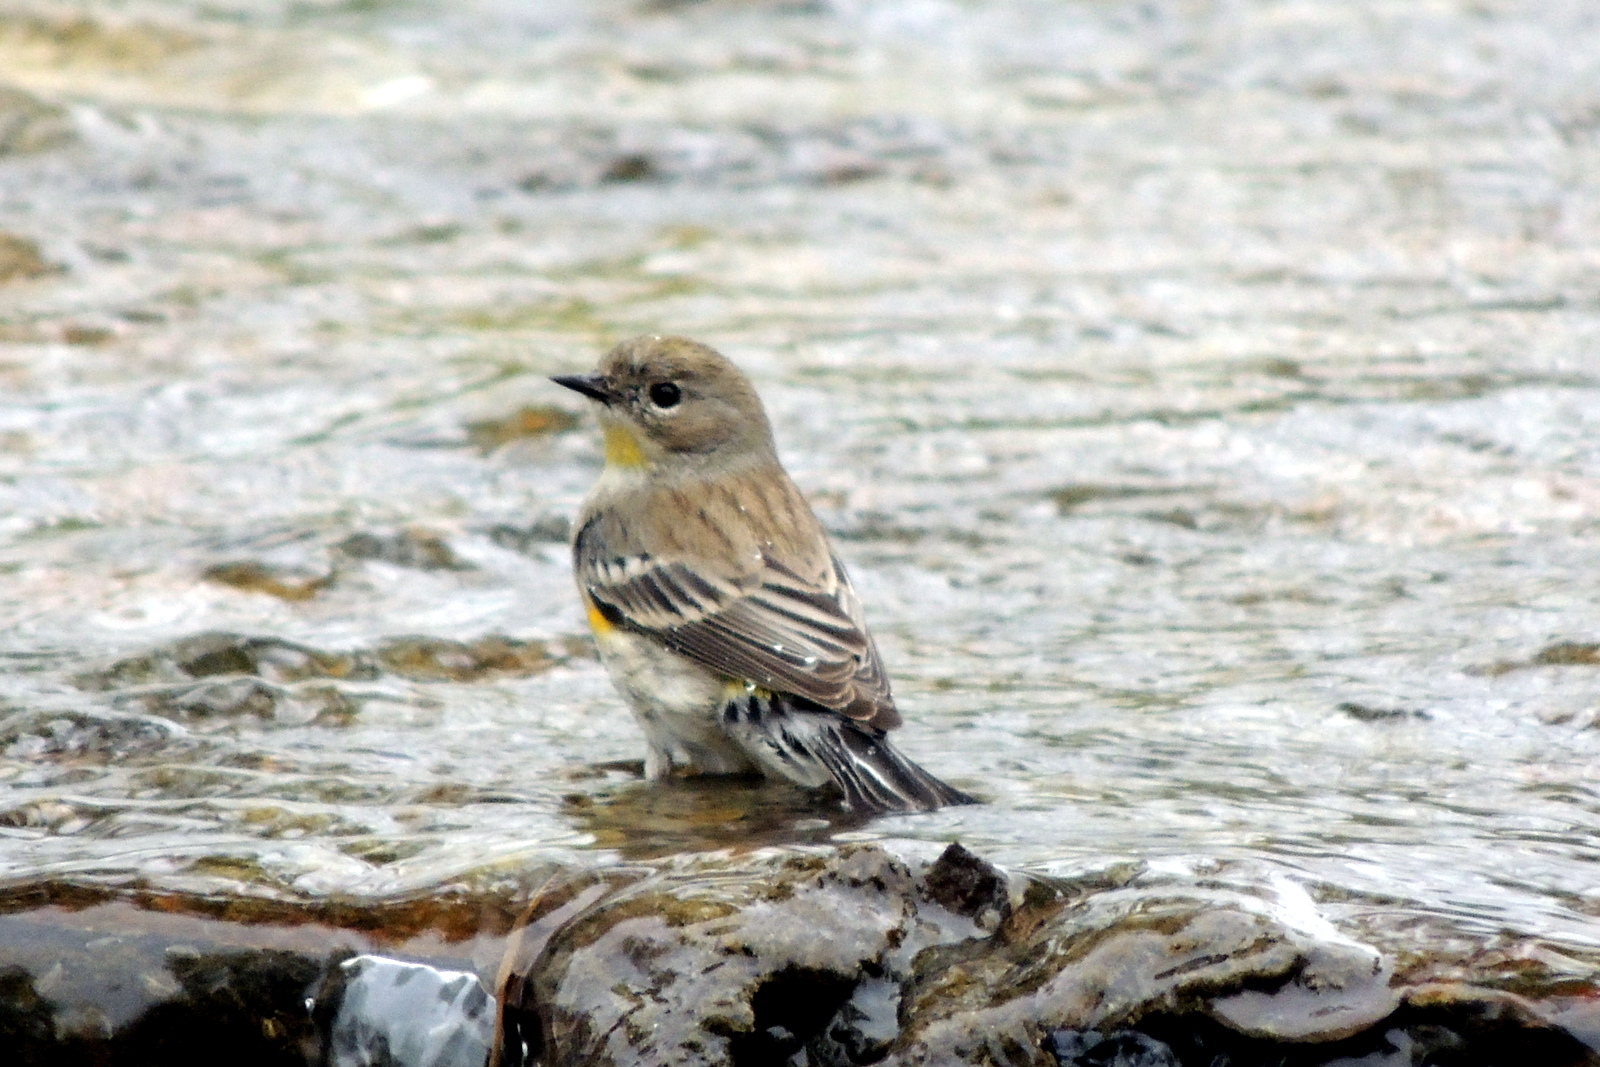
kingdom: Animalia
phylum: Chordata
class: Aves
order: Passeriformes
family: Parulidae
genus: Setophaga
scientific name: Setophaga coronata
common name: Myrtle warbler
